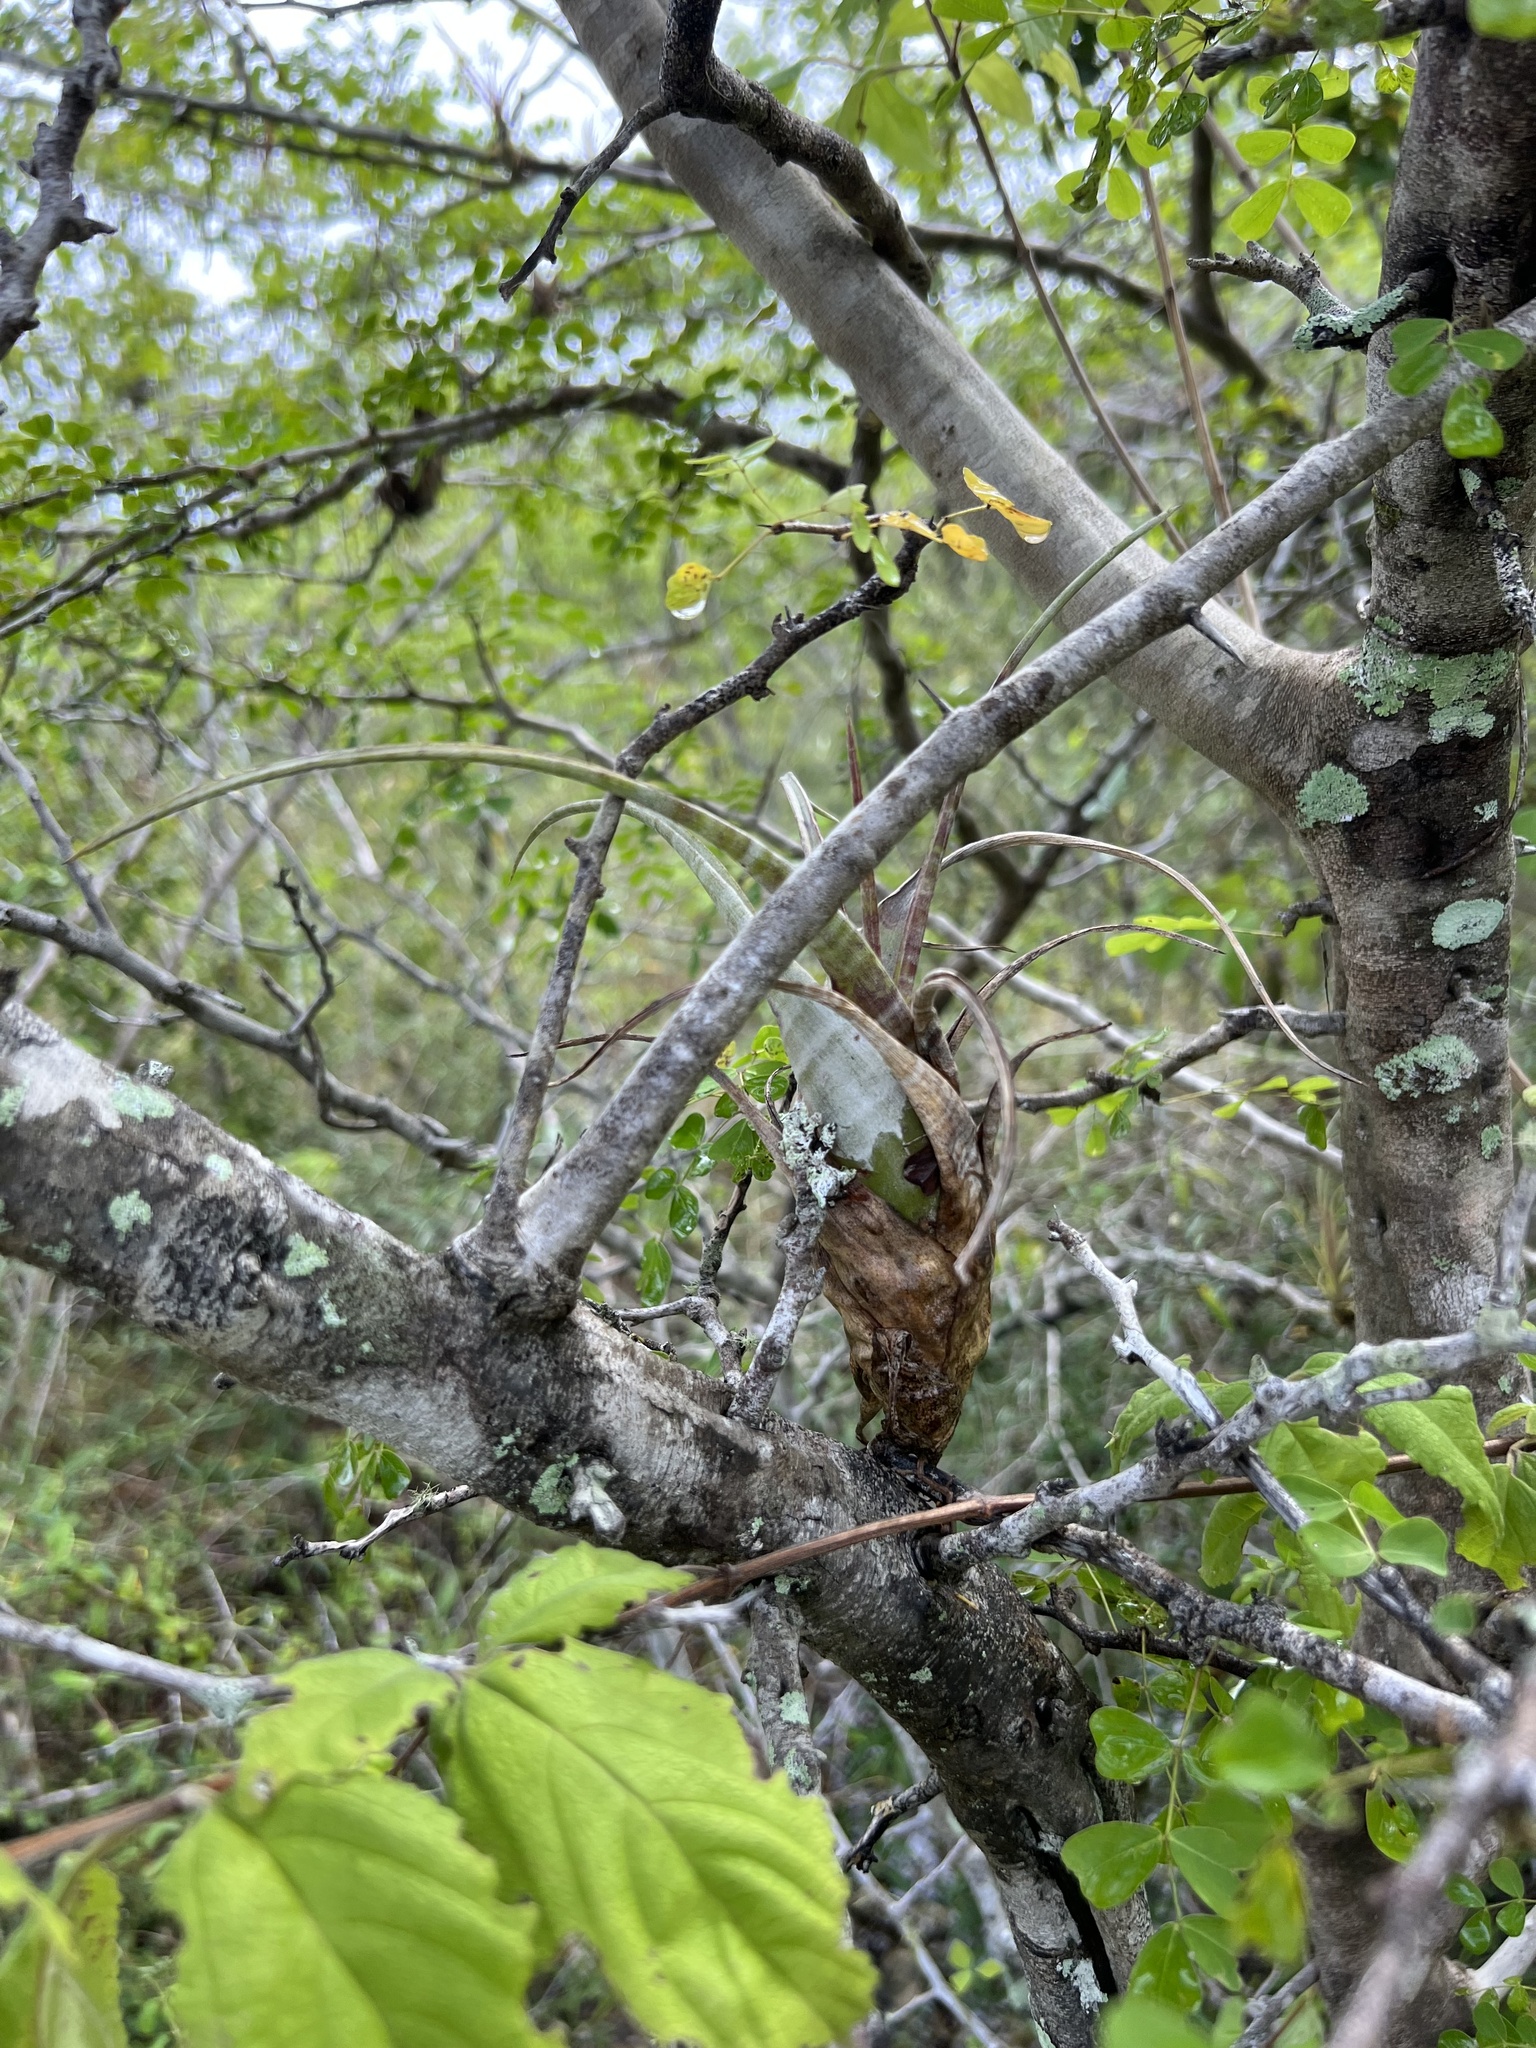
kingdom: Plantae
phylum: Tracheophyta
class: Liliopsida
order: Poales
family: Bromeliaceae
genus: Tillandsia
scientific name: Tillandsia flexuosa
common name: Banded airplant
